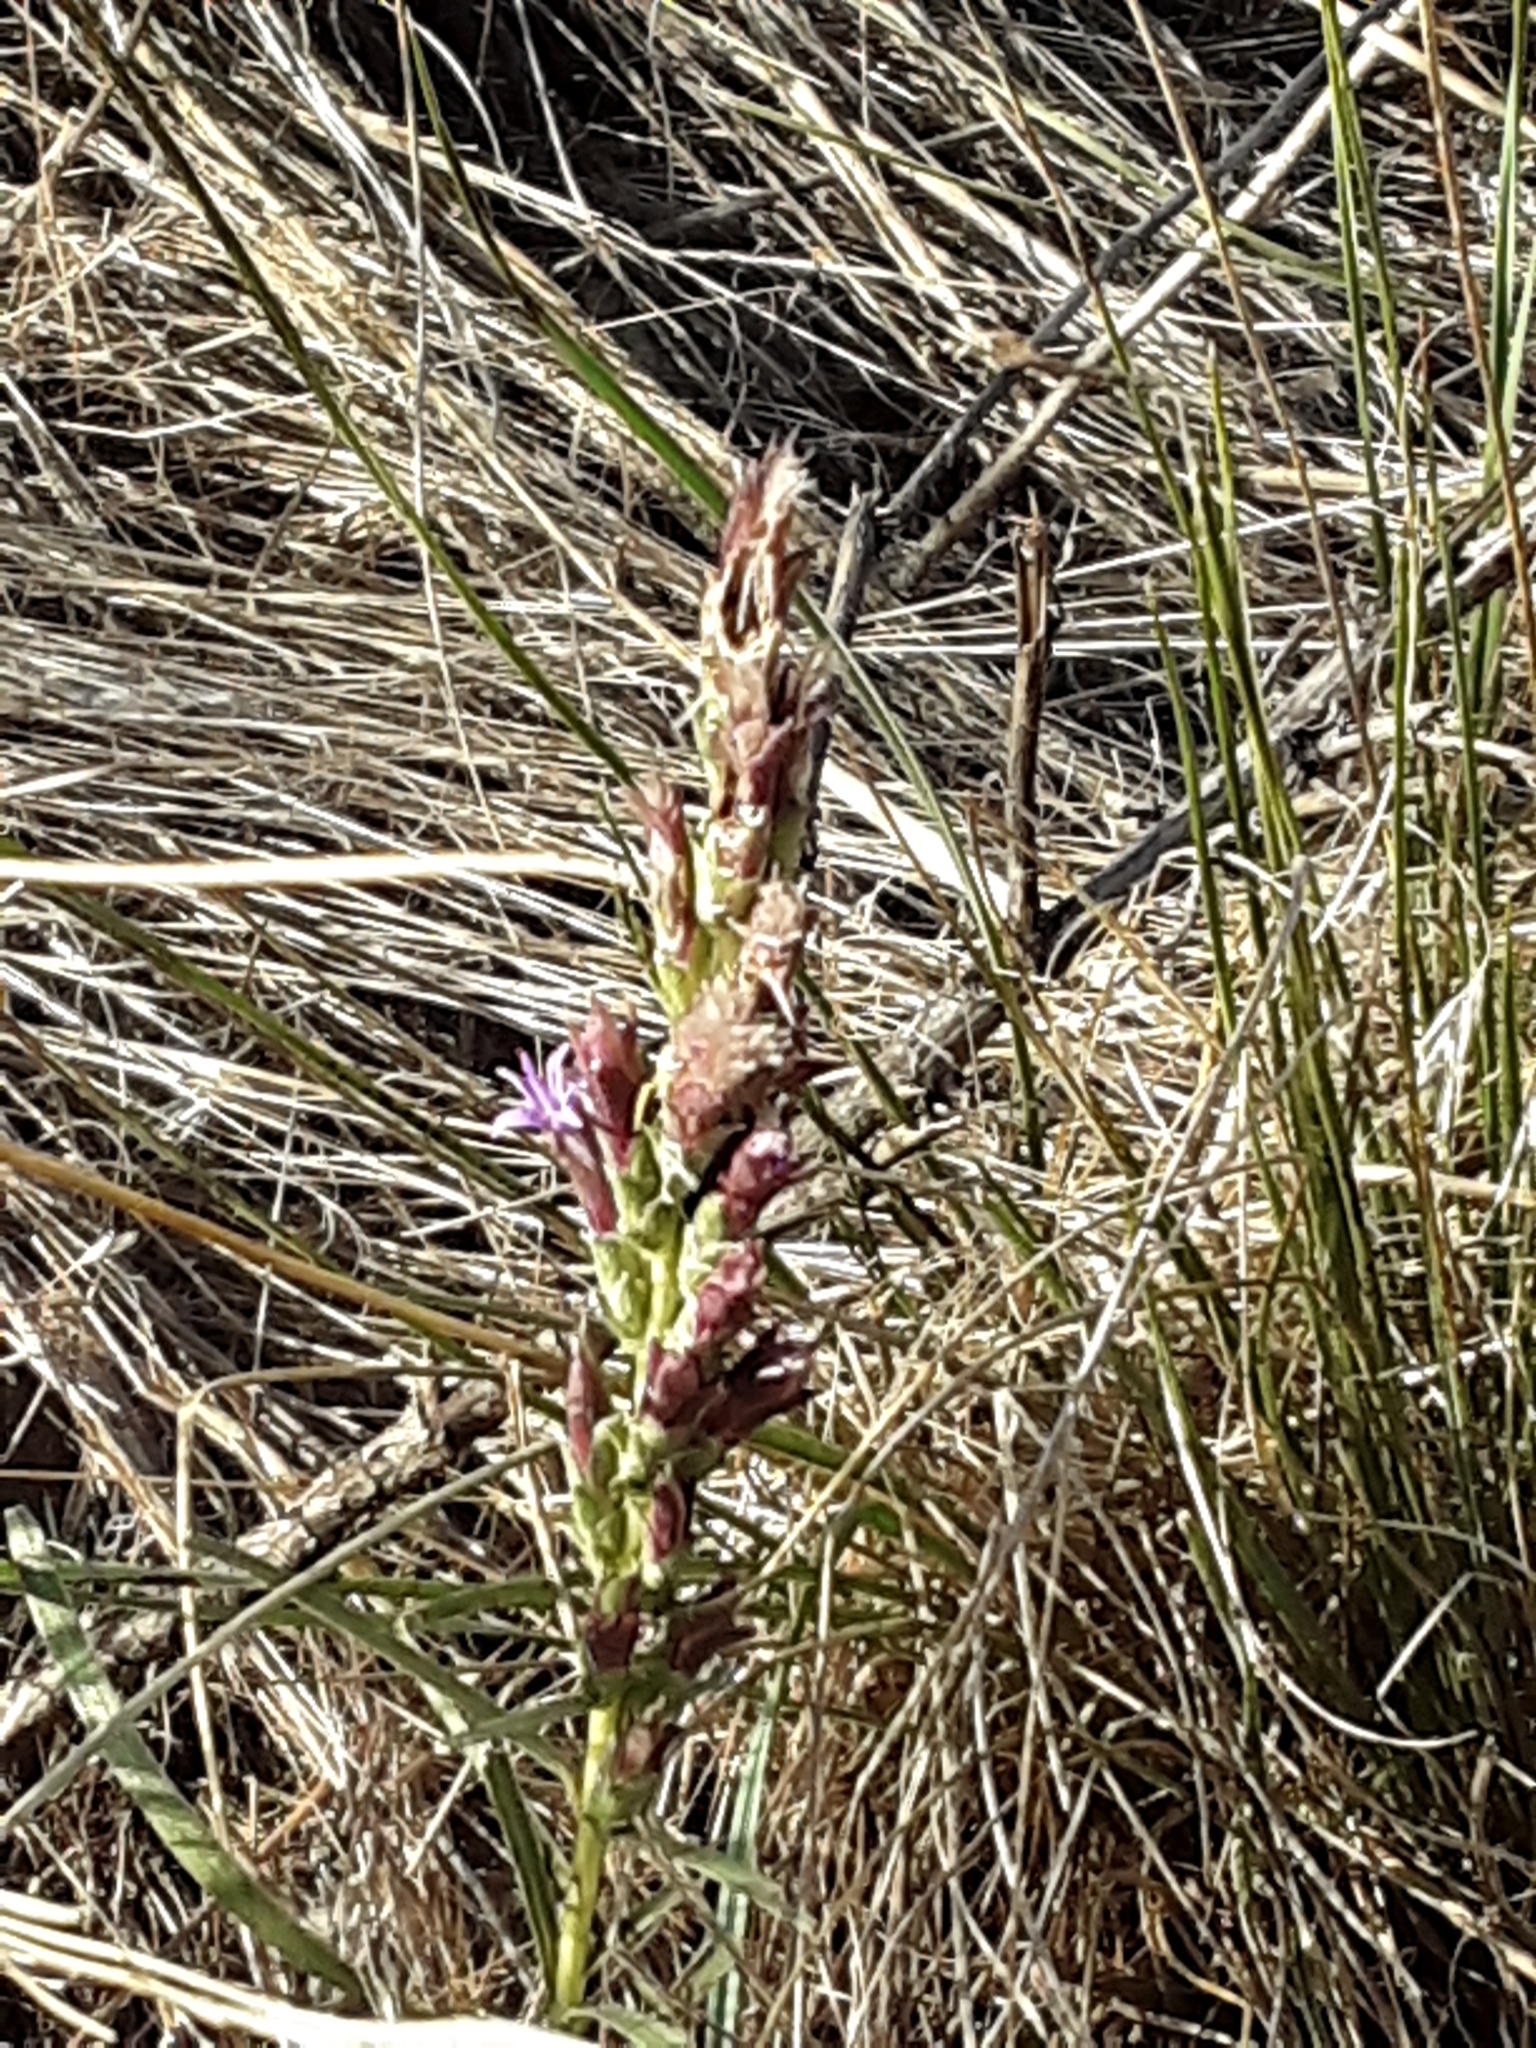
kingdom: Plantae
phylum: Tracheophyta
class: Magnoliopsida
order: Asterales
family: Asteraceae
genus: Liatris
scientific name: Liatris punctata
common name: Dotted gayfeather
